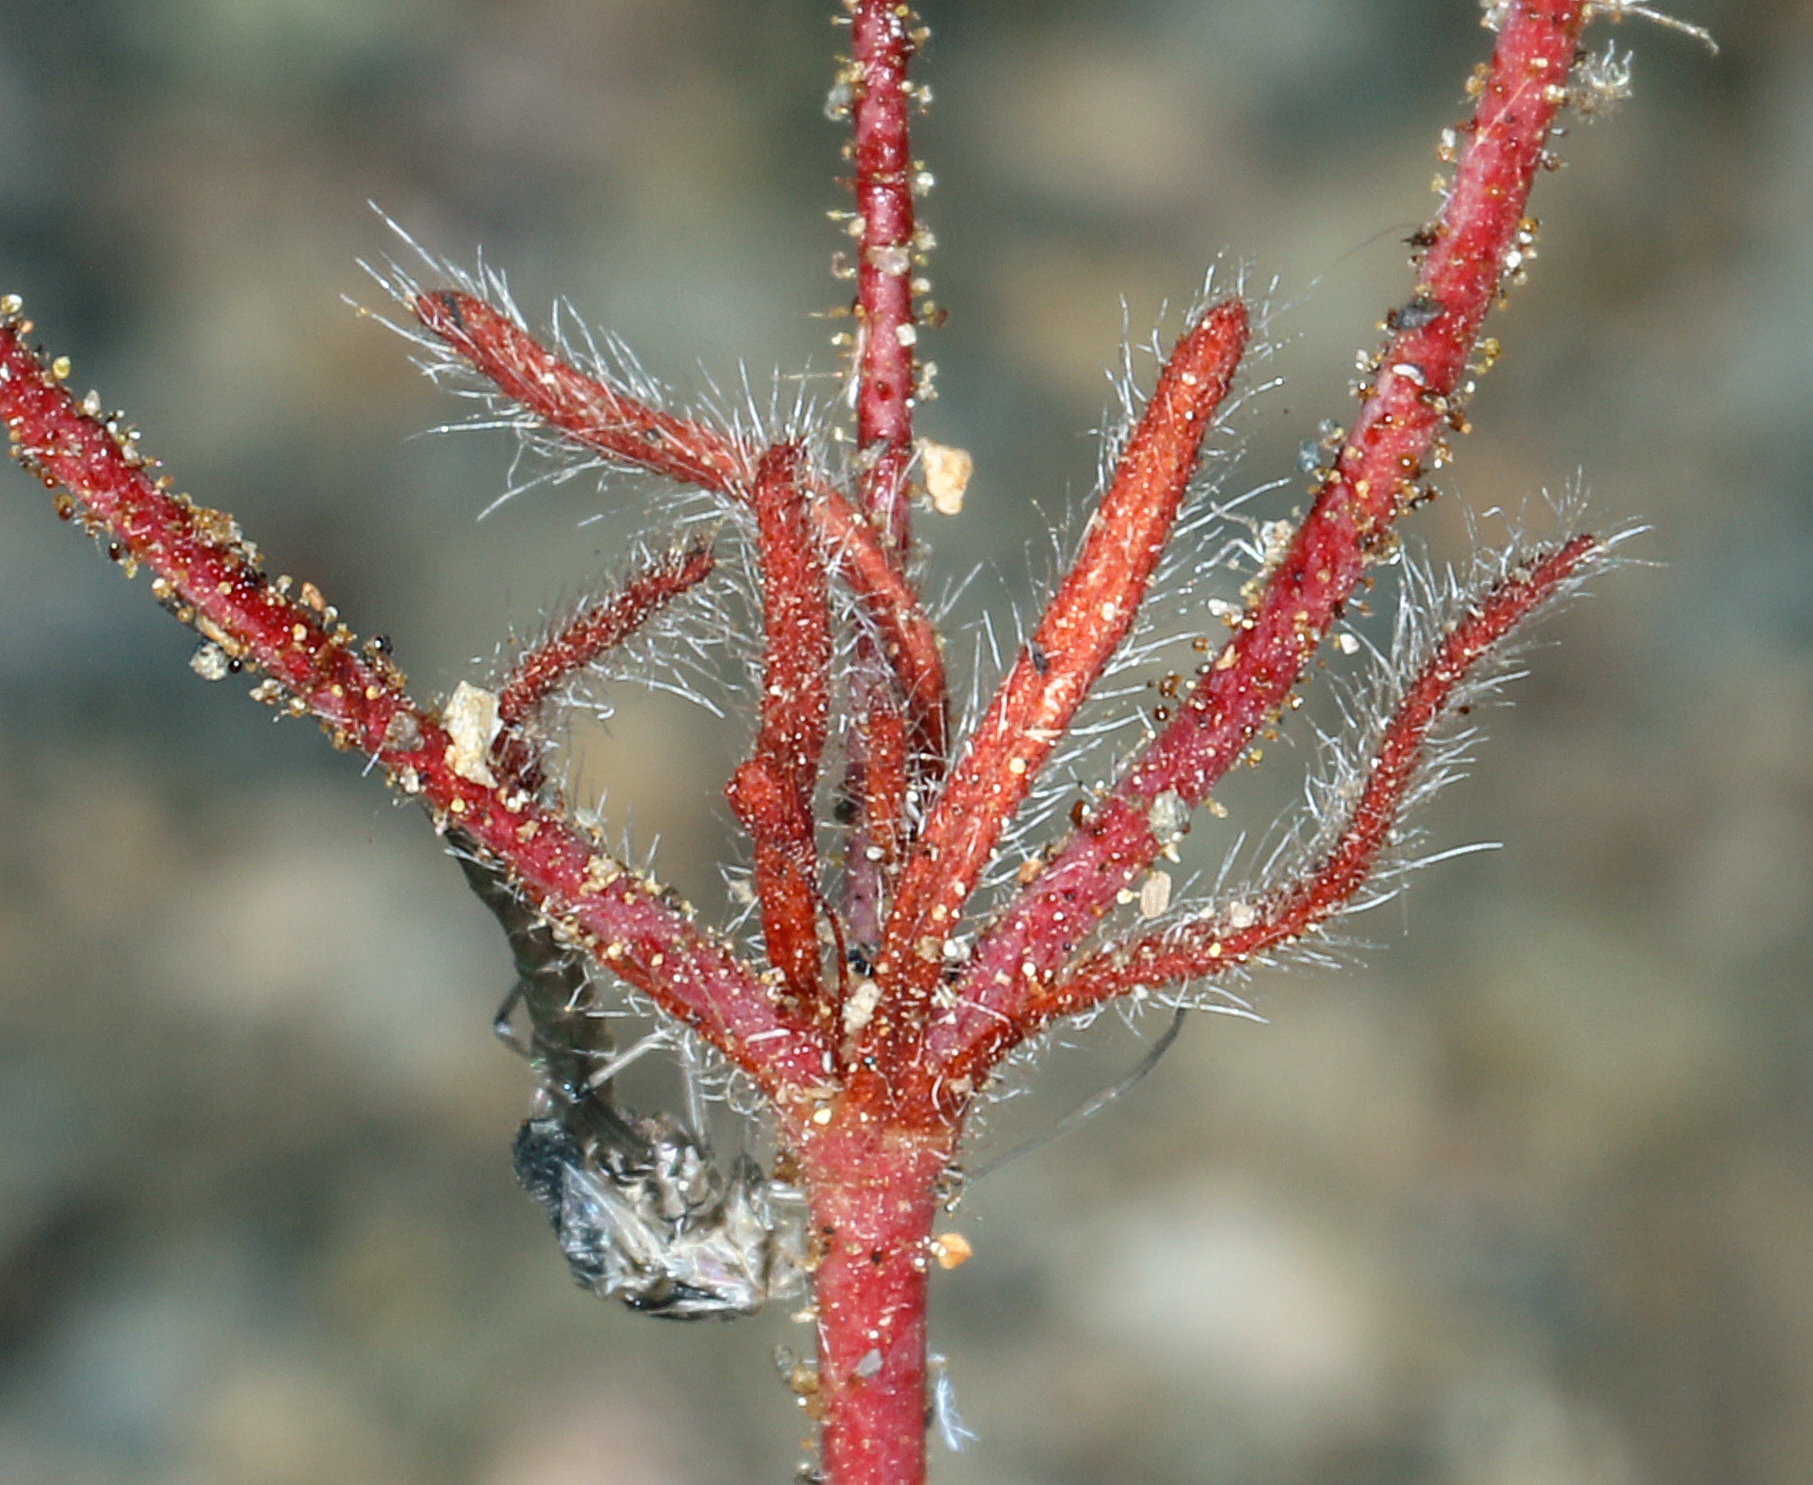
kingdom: Plantae
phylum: Tracheophyta
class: Magnoliopsida
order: Caryophyllales
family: Polygonaceae
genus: Eriogonum
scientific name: Eriogonum spergulinum
